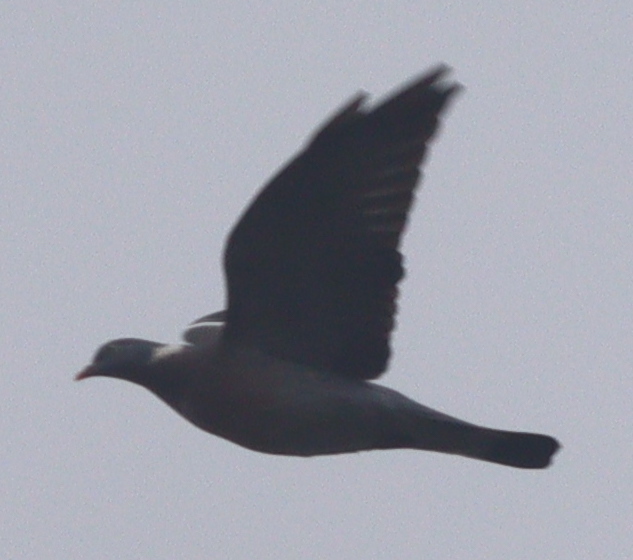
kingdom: Animalia
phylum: Chordata
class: Aves
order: Columbiformes
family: Columbidae
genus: Columba
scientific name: Columba palumbus
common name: Common wood pigeon
